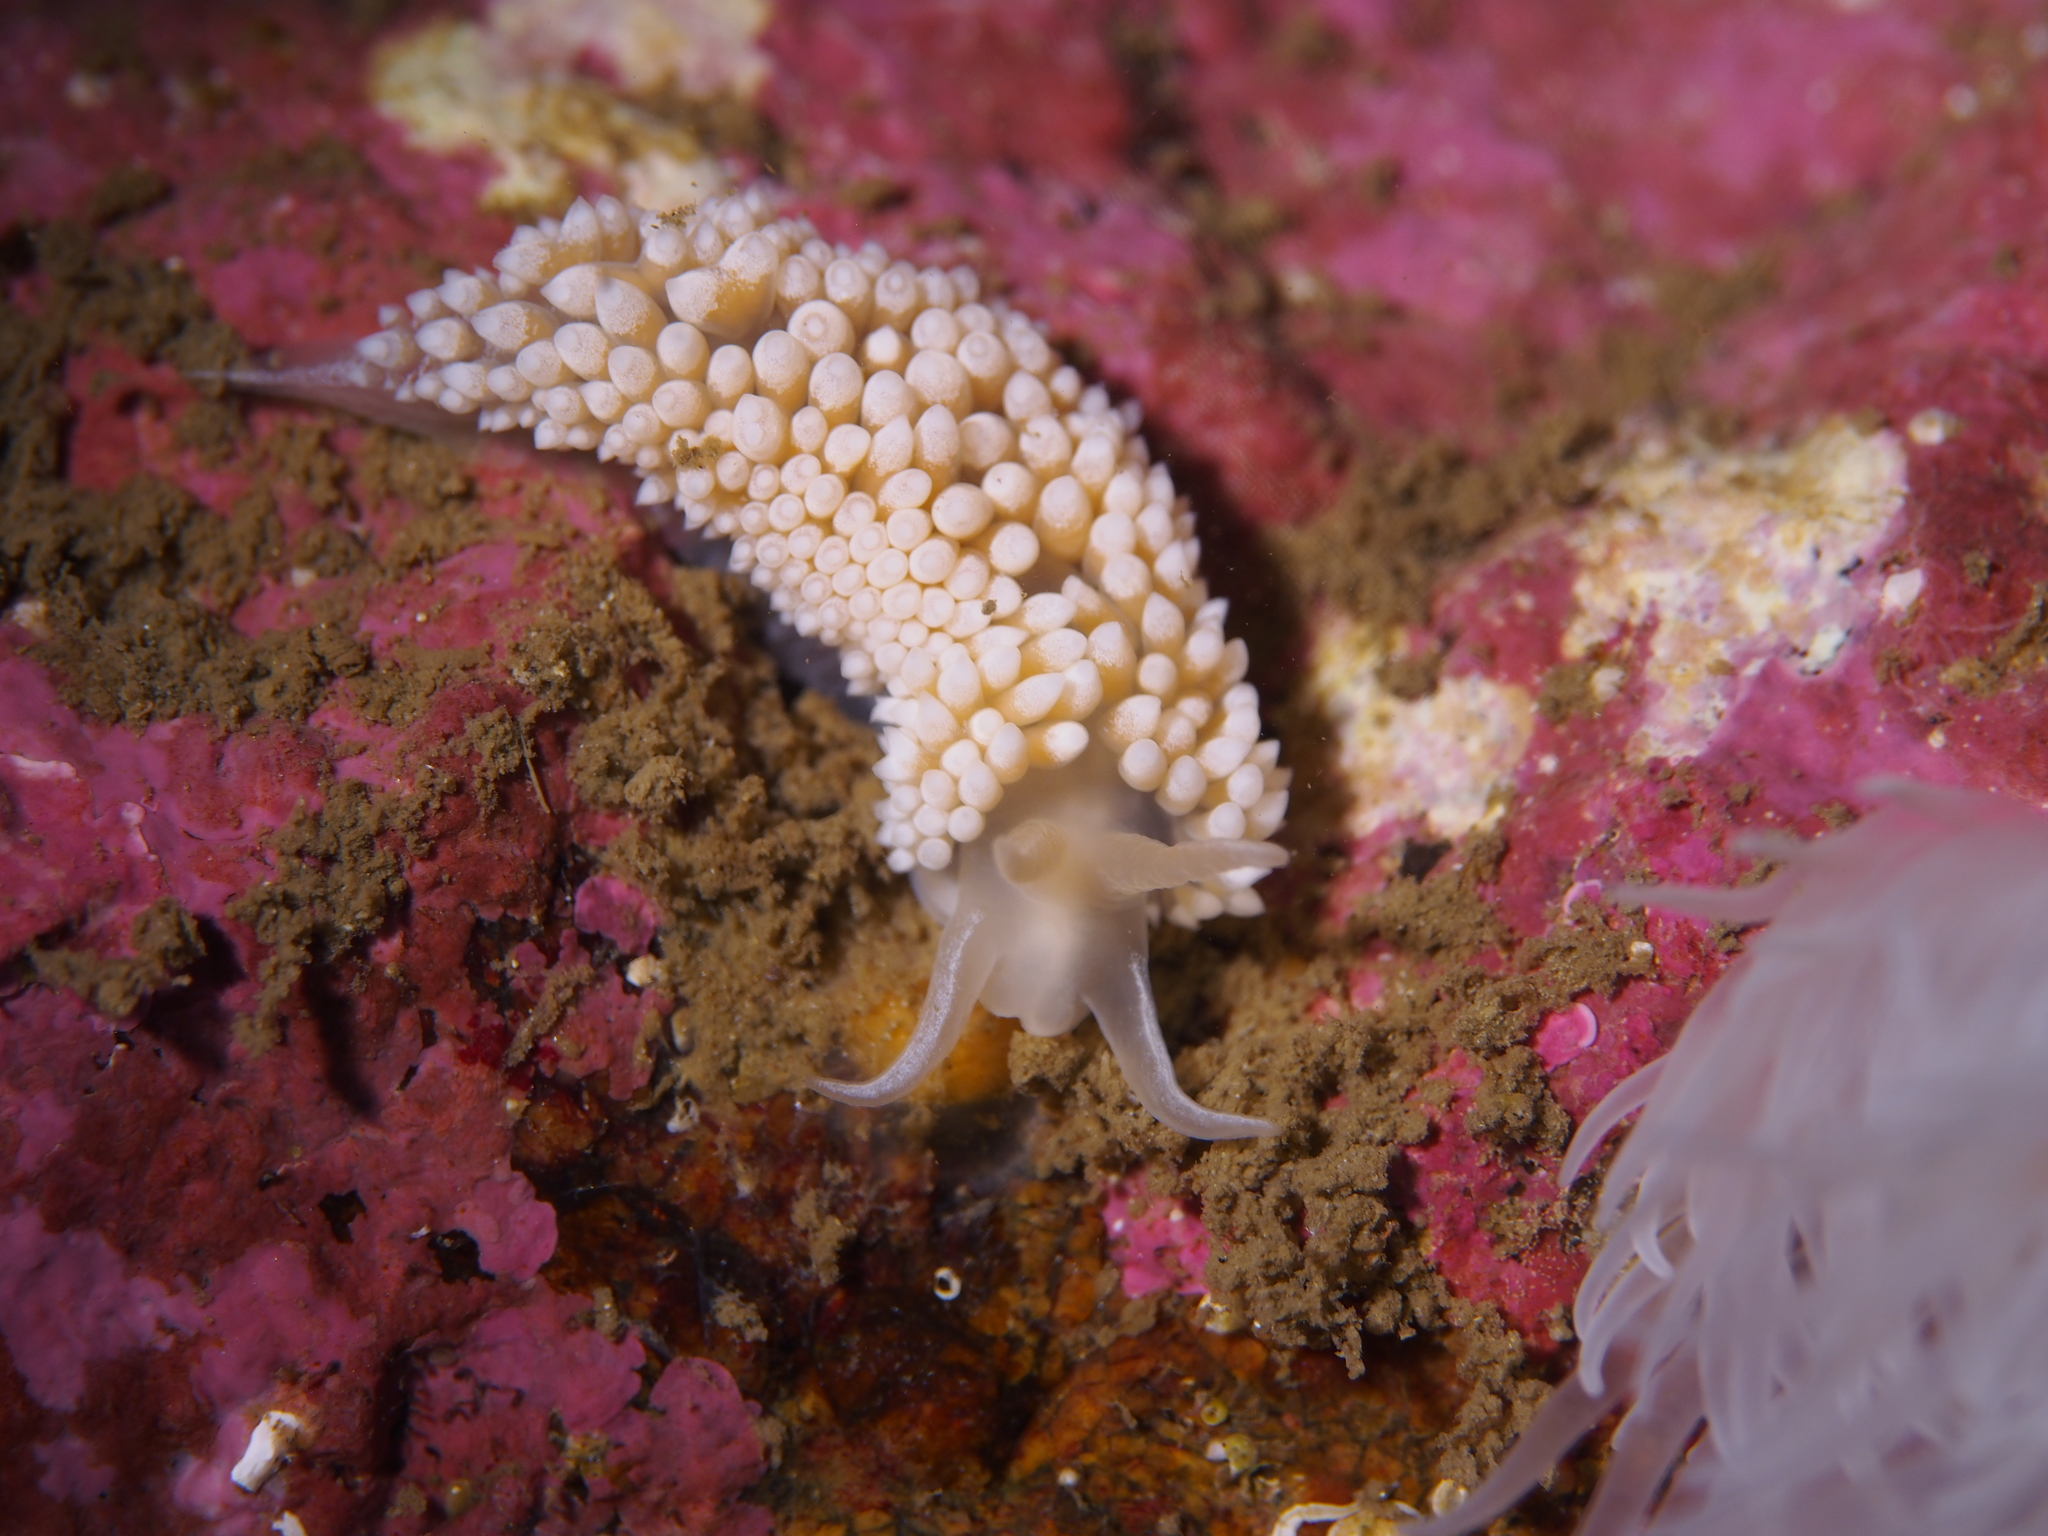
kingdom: Animalia
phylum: Mollusca
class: Gastropoda
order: Nudibranchia
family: Coryphellidae
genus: Coryphella
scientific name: Coryphella verrucosa
